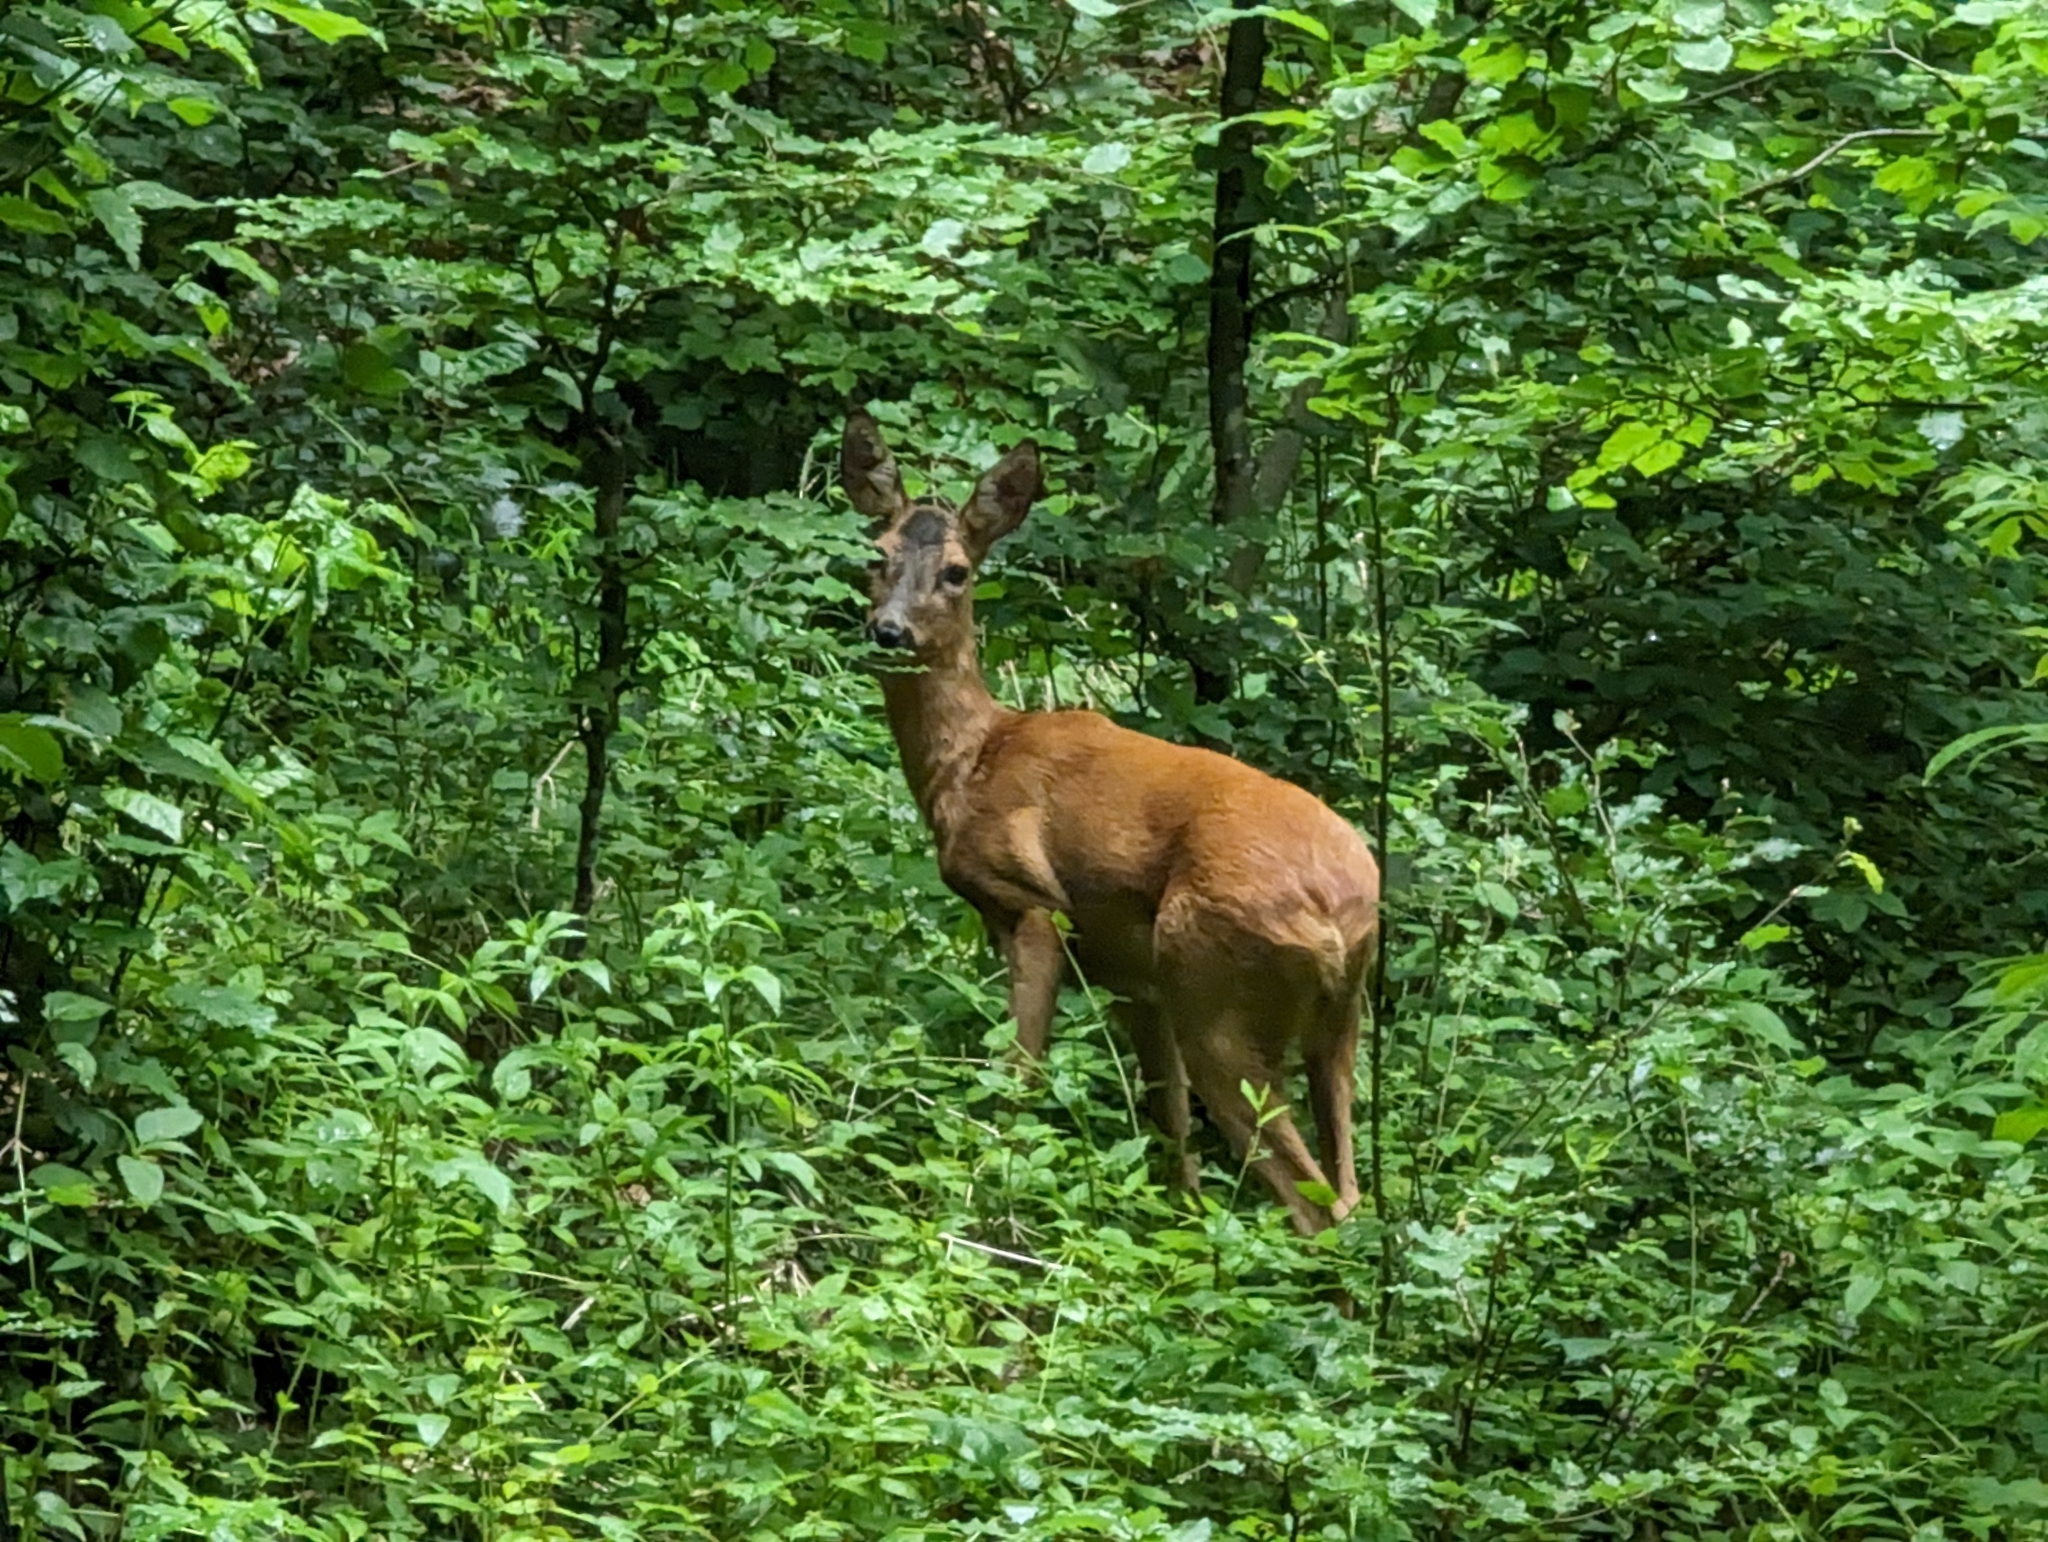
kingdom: Animalia
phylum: Chordata
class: Mammalia
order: Artiodactyla
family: Cervidae
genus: Capreolus
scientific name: Capreolus capreolus
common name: Western roe deer
